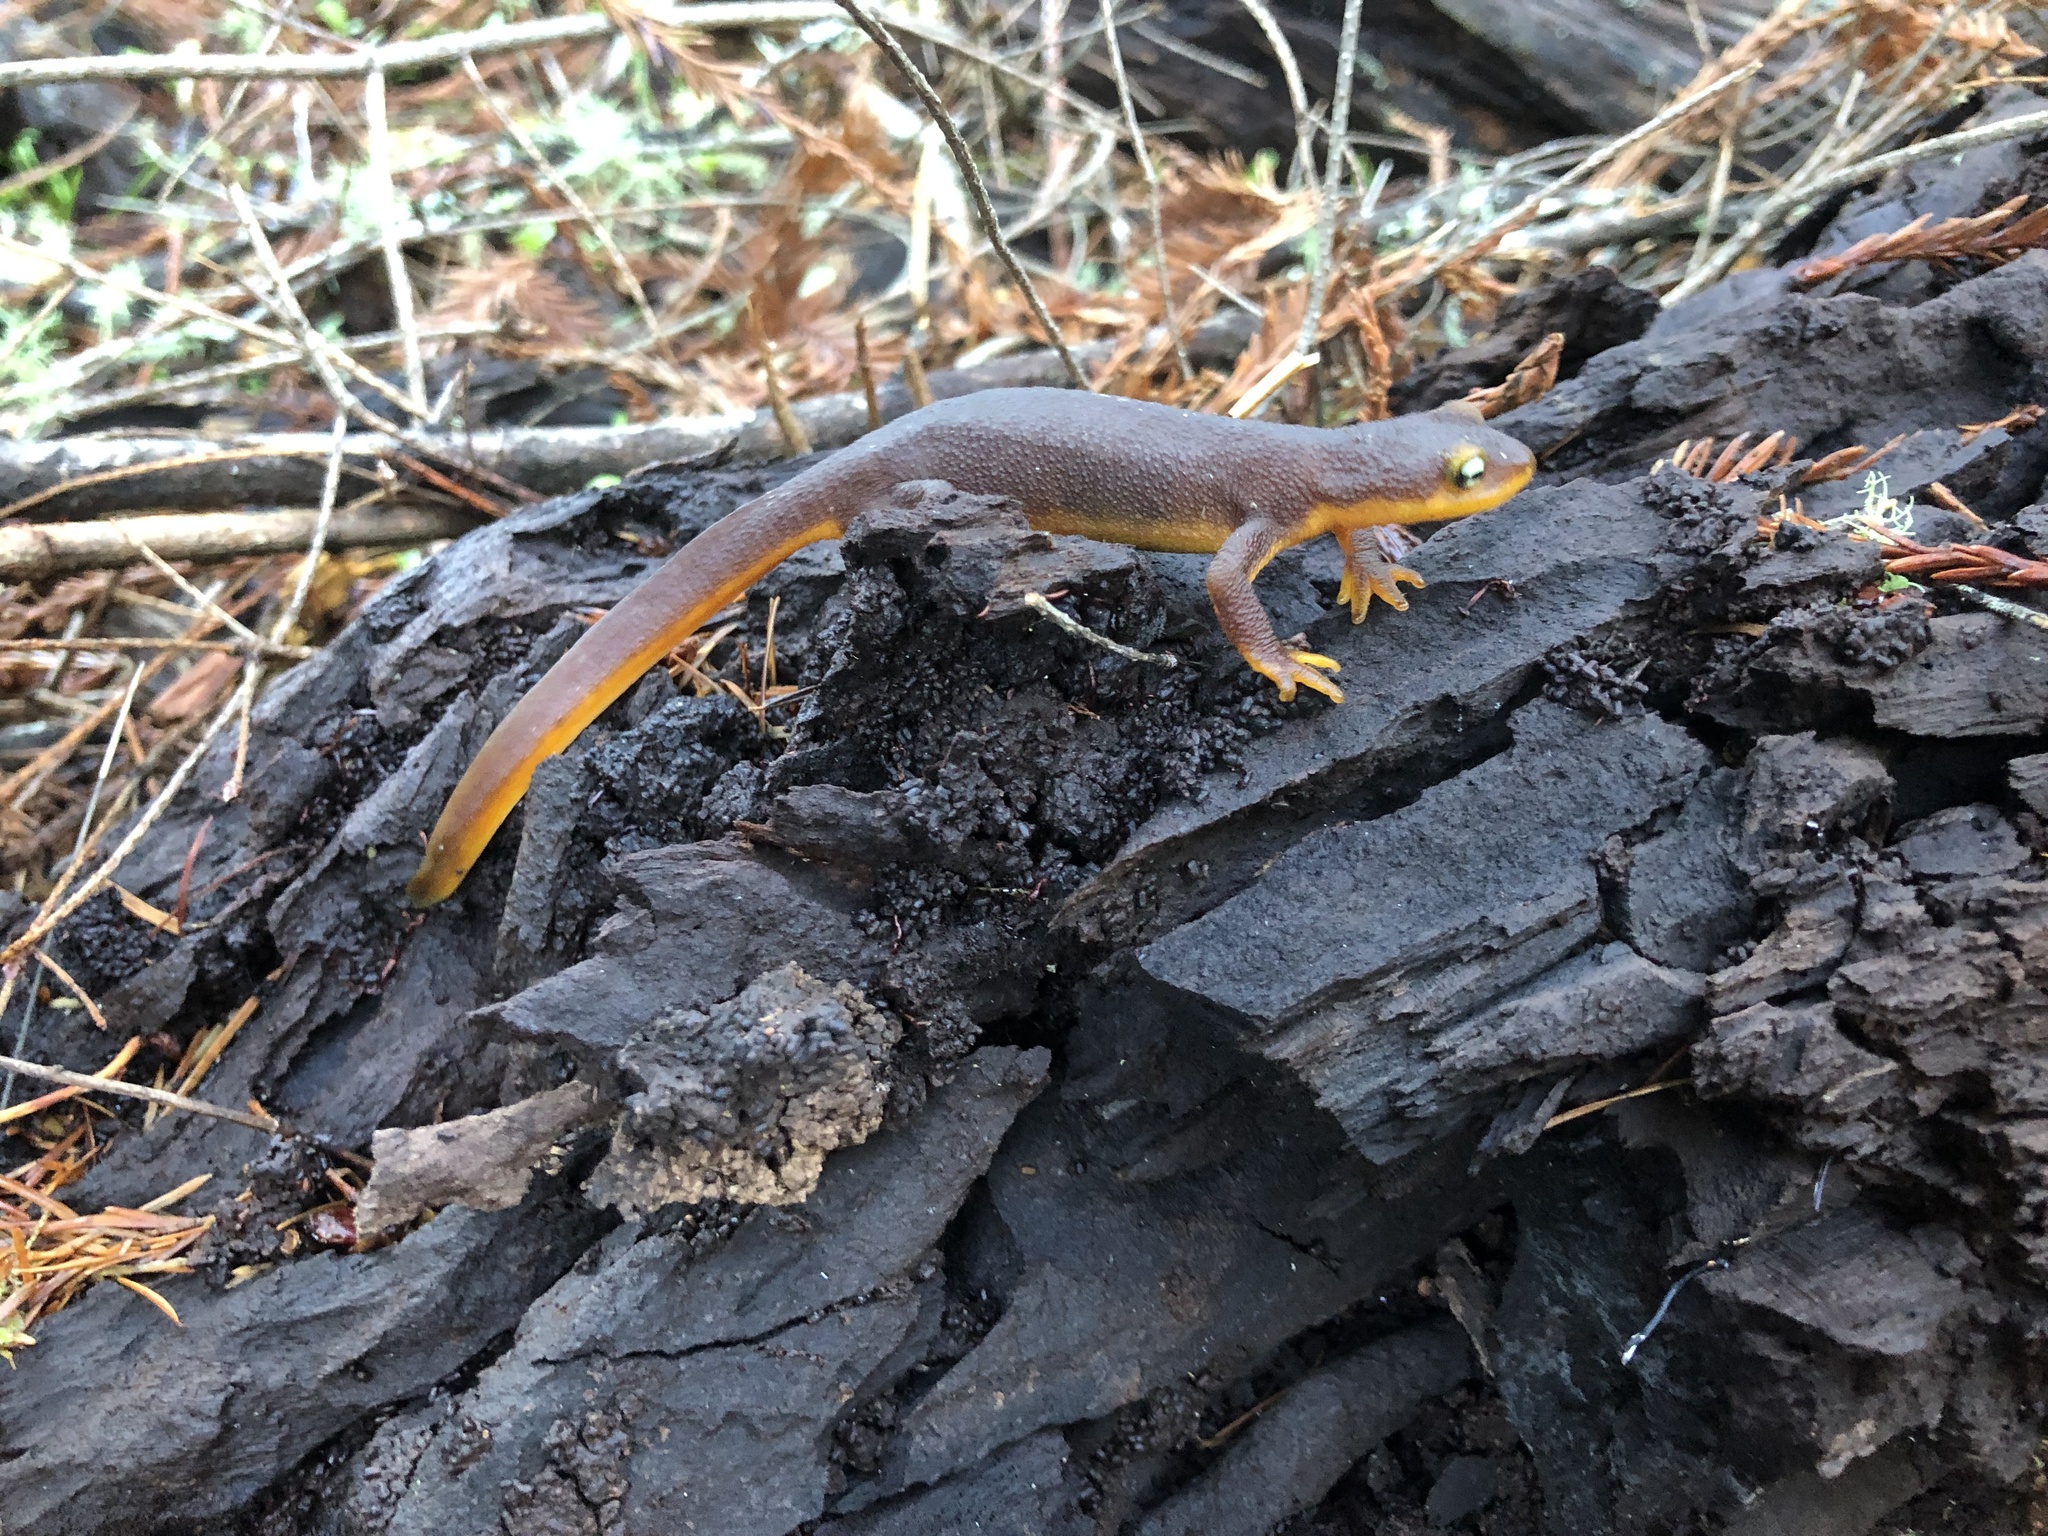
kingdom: Animalia
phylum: Chordata
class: Amphibia
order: Caudata
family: Salamandridae
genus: Taricha
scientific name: Taricha torosa
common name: California newt
